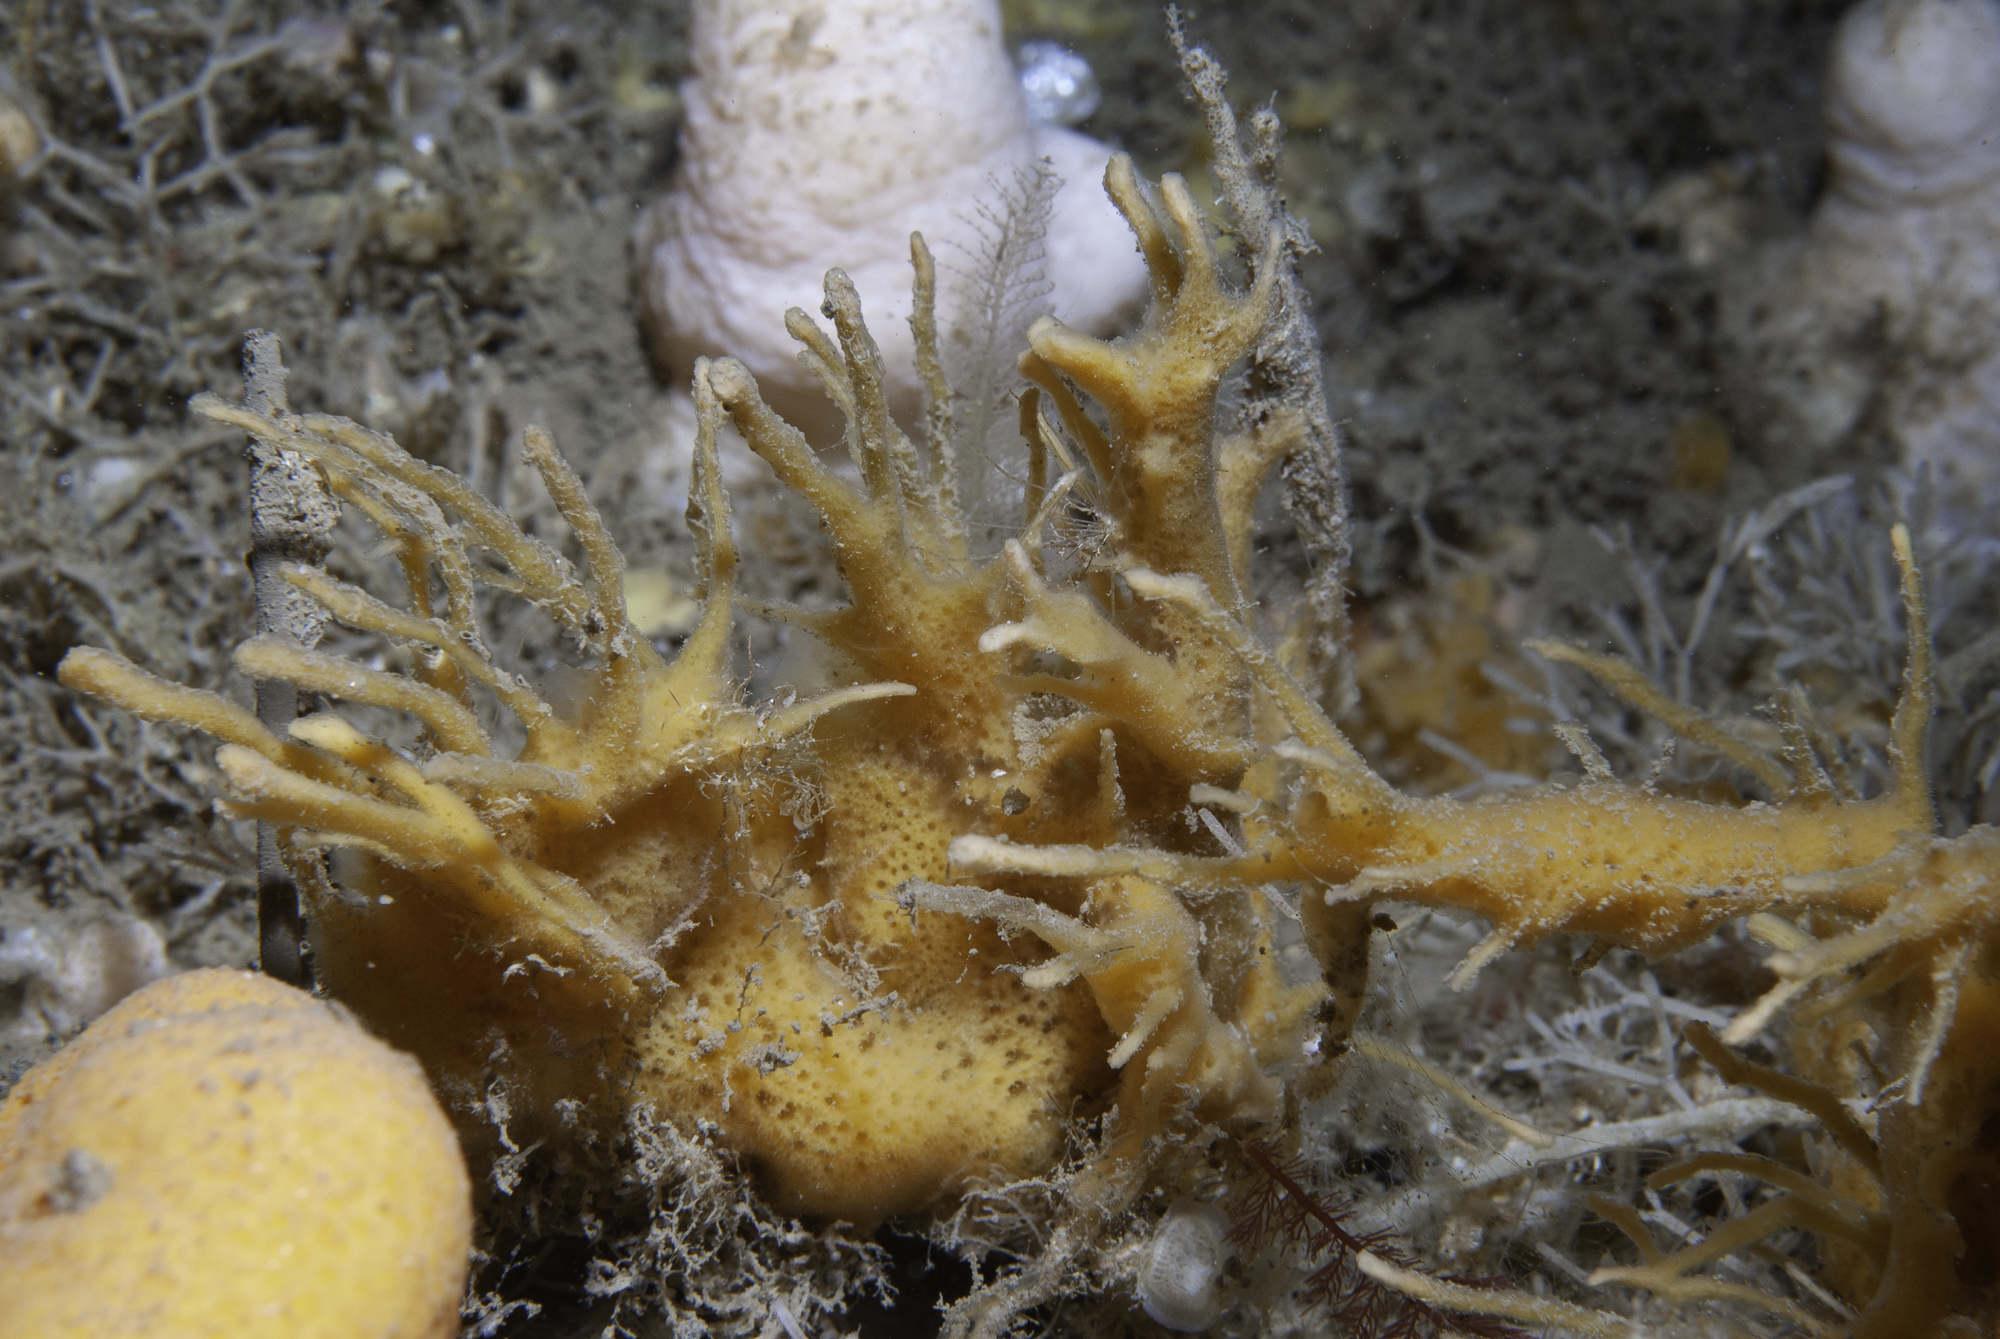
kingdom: Animalia
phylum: Porifera
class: Demospongiae
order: Poecilosclerida
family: Esperiopsidae
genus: Amphilectus
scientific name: Amphilectus fucorum
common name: Carrot-sponge
